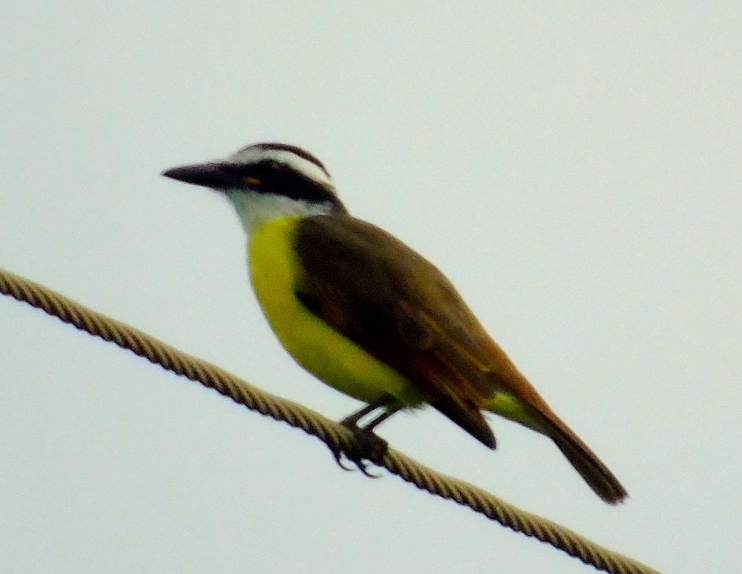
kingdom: Animalia
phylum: Chordata
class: Aves
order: Passeriformes
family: Tyrannidae
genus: Pitangus
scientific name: Pitangus sulphuratus
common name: Great kiskadee
